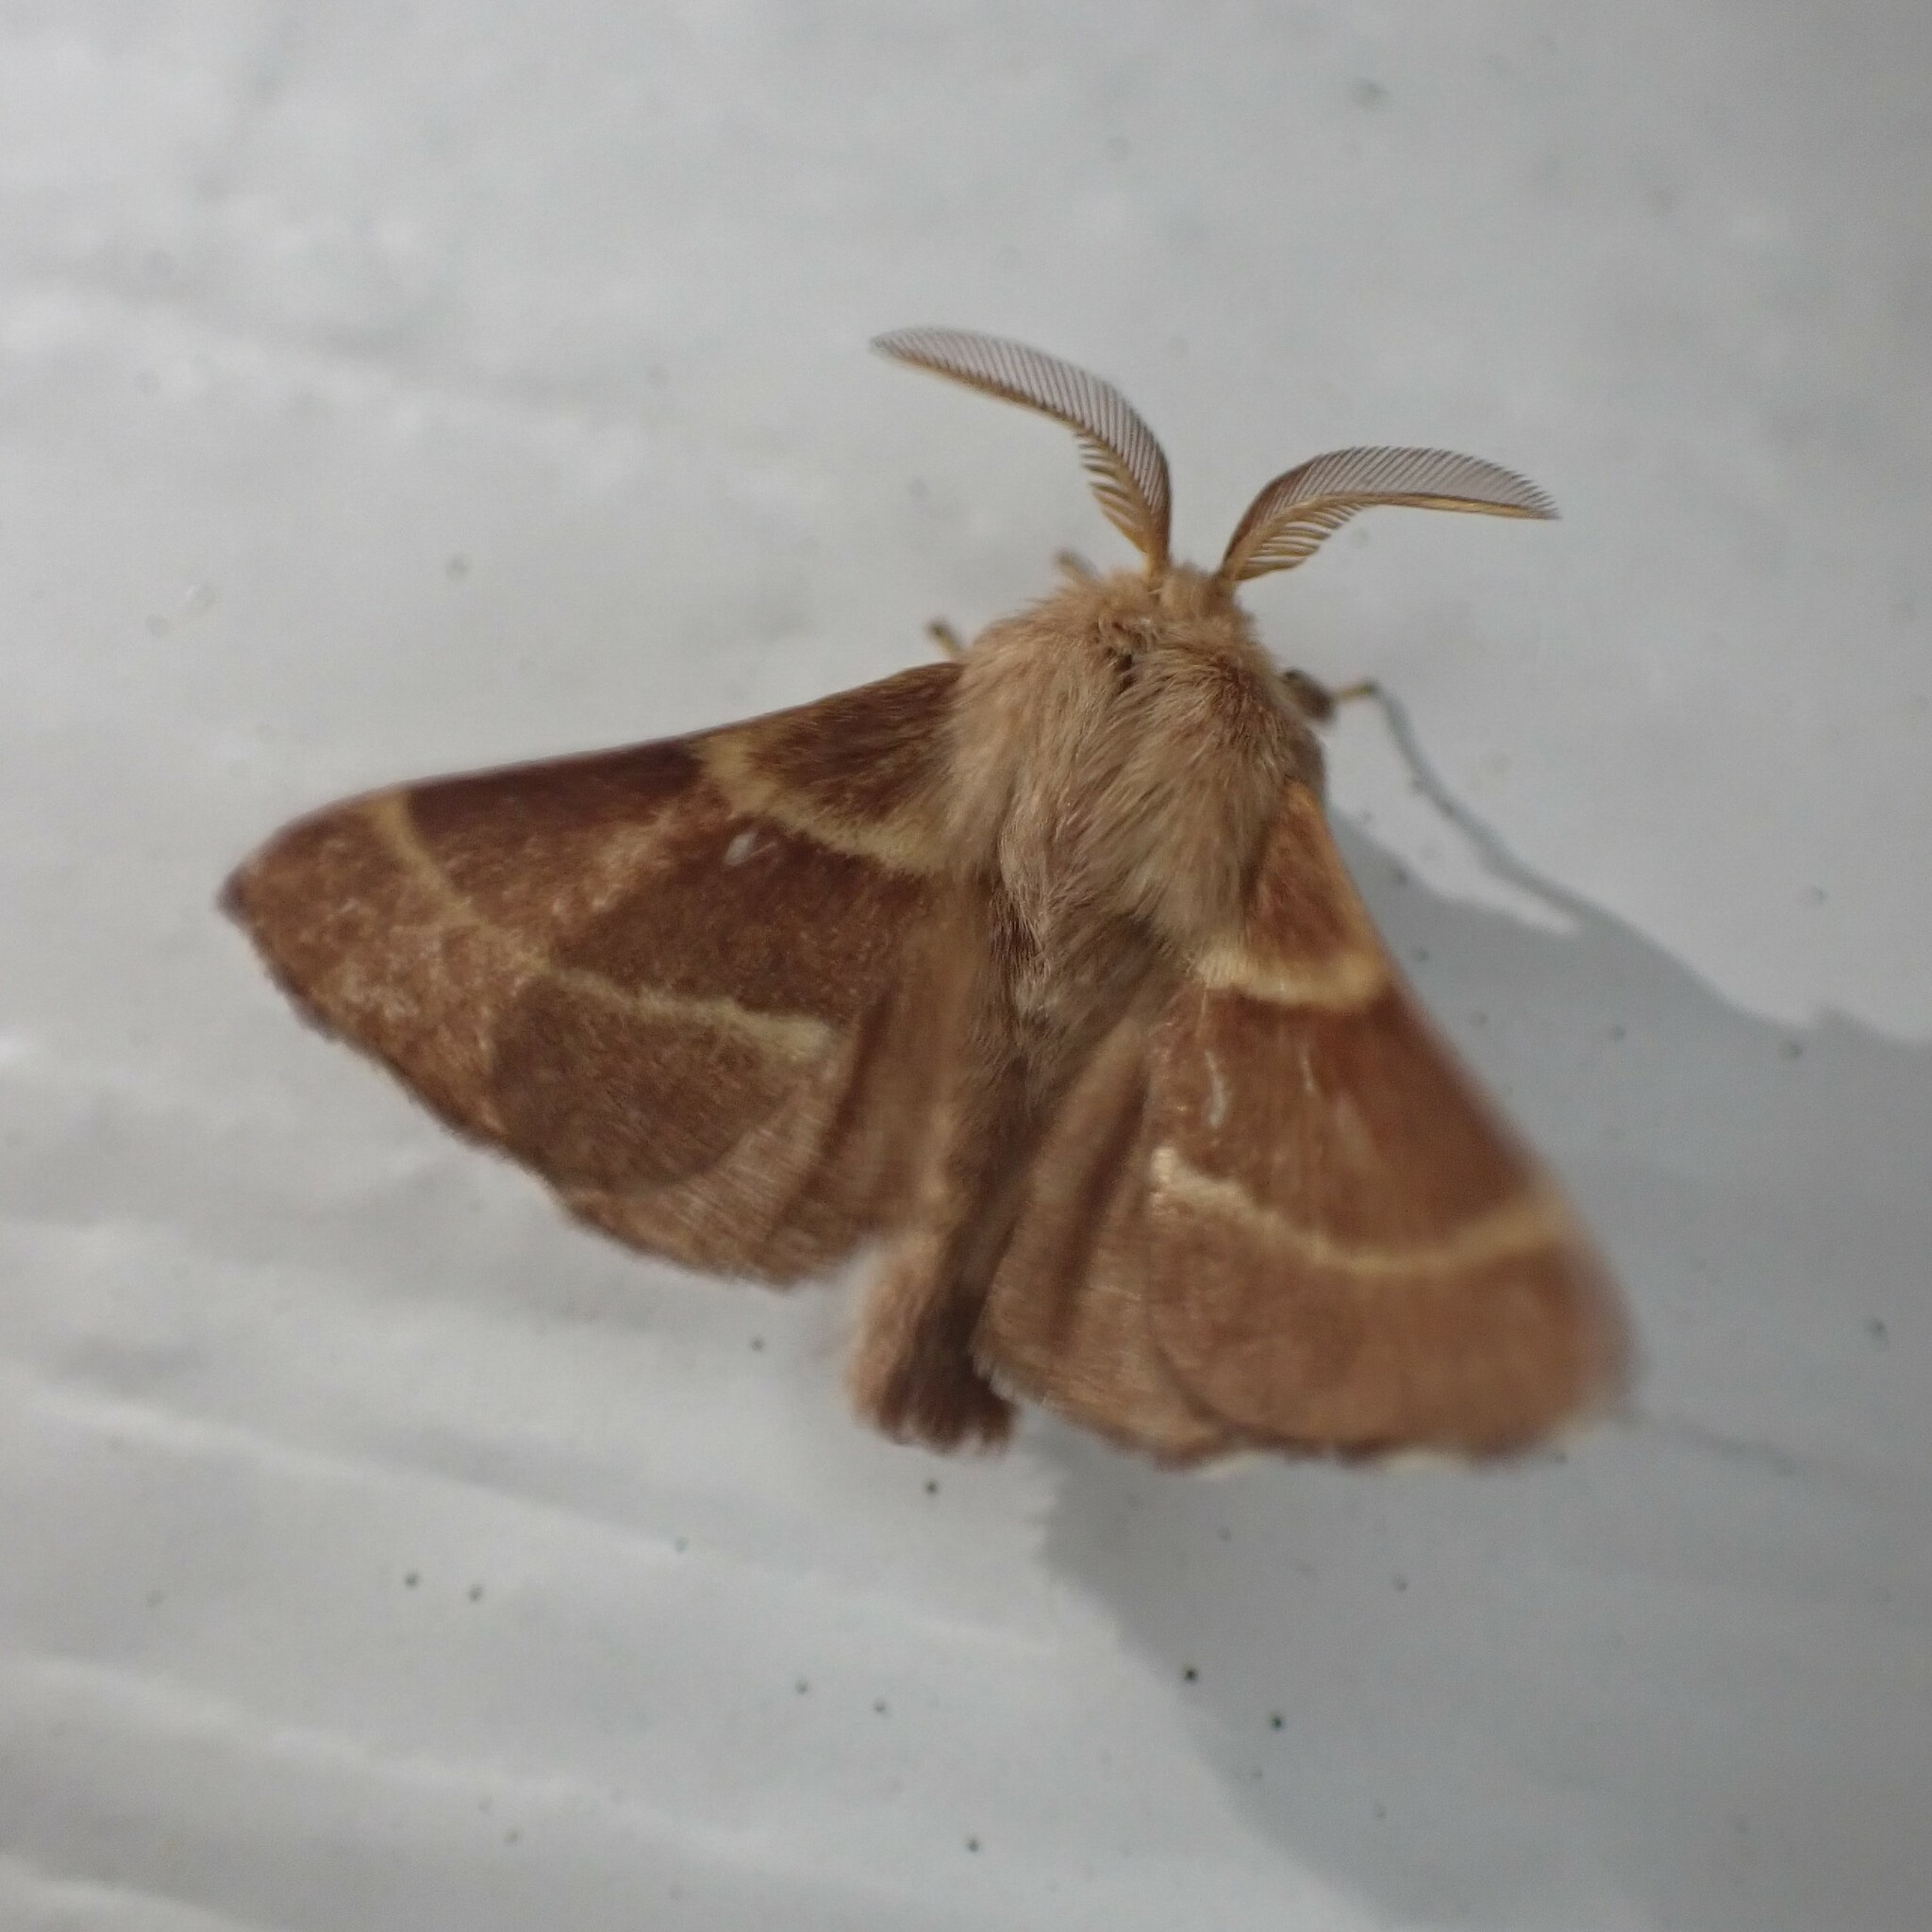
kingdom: Animalia
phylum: Arthropoda
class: Insecta
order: Lepidoptera
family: Lasiocampidae
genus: Malacosoma
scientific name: Malacosoma californica
